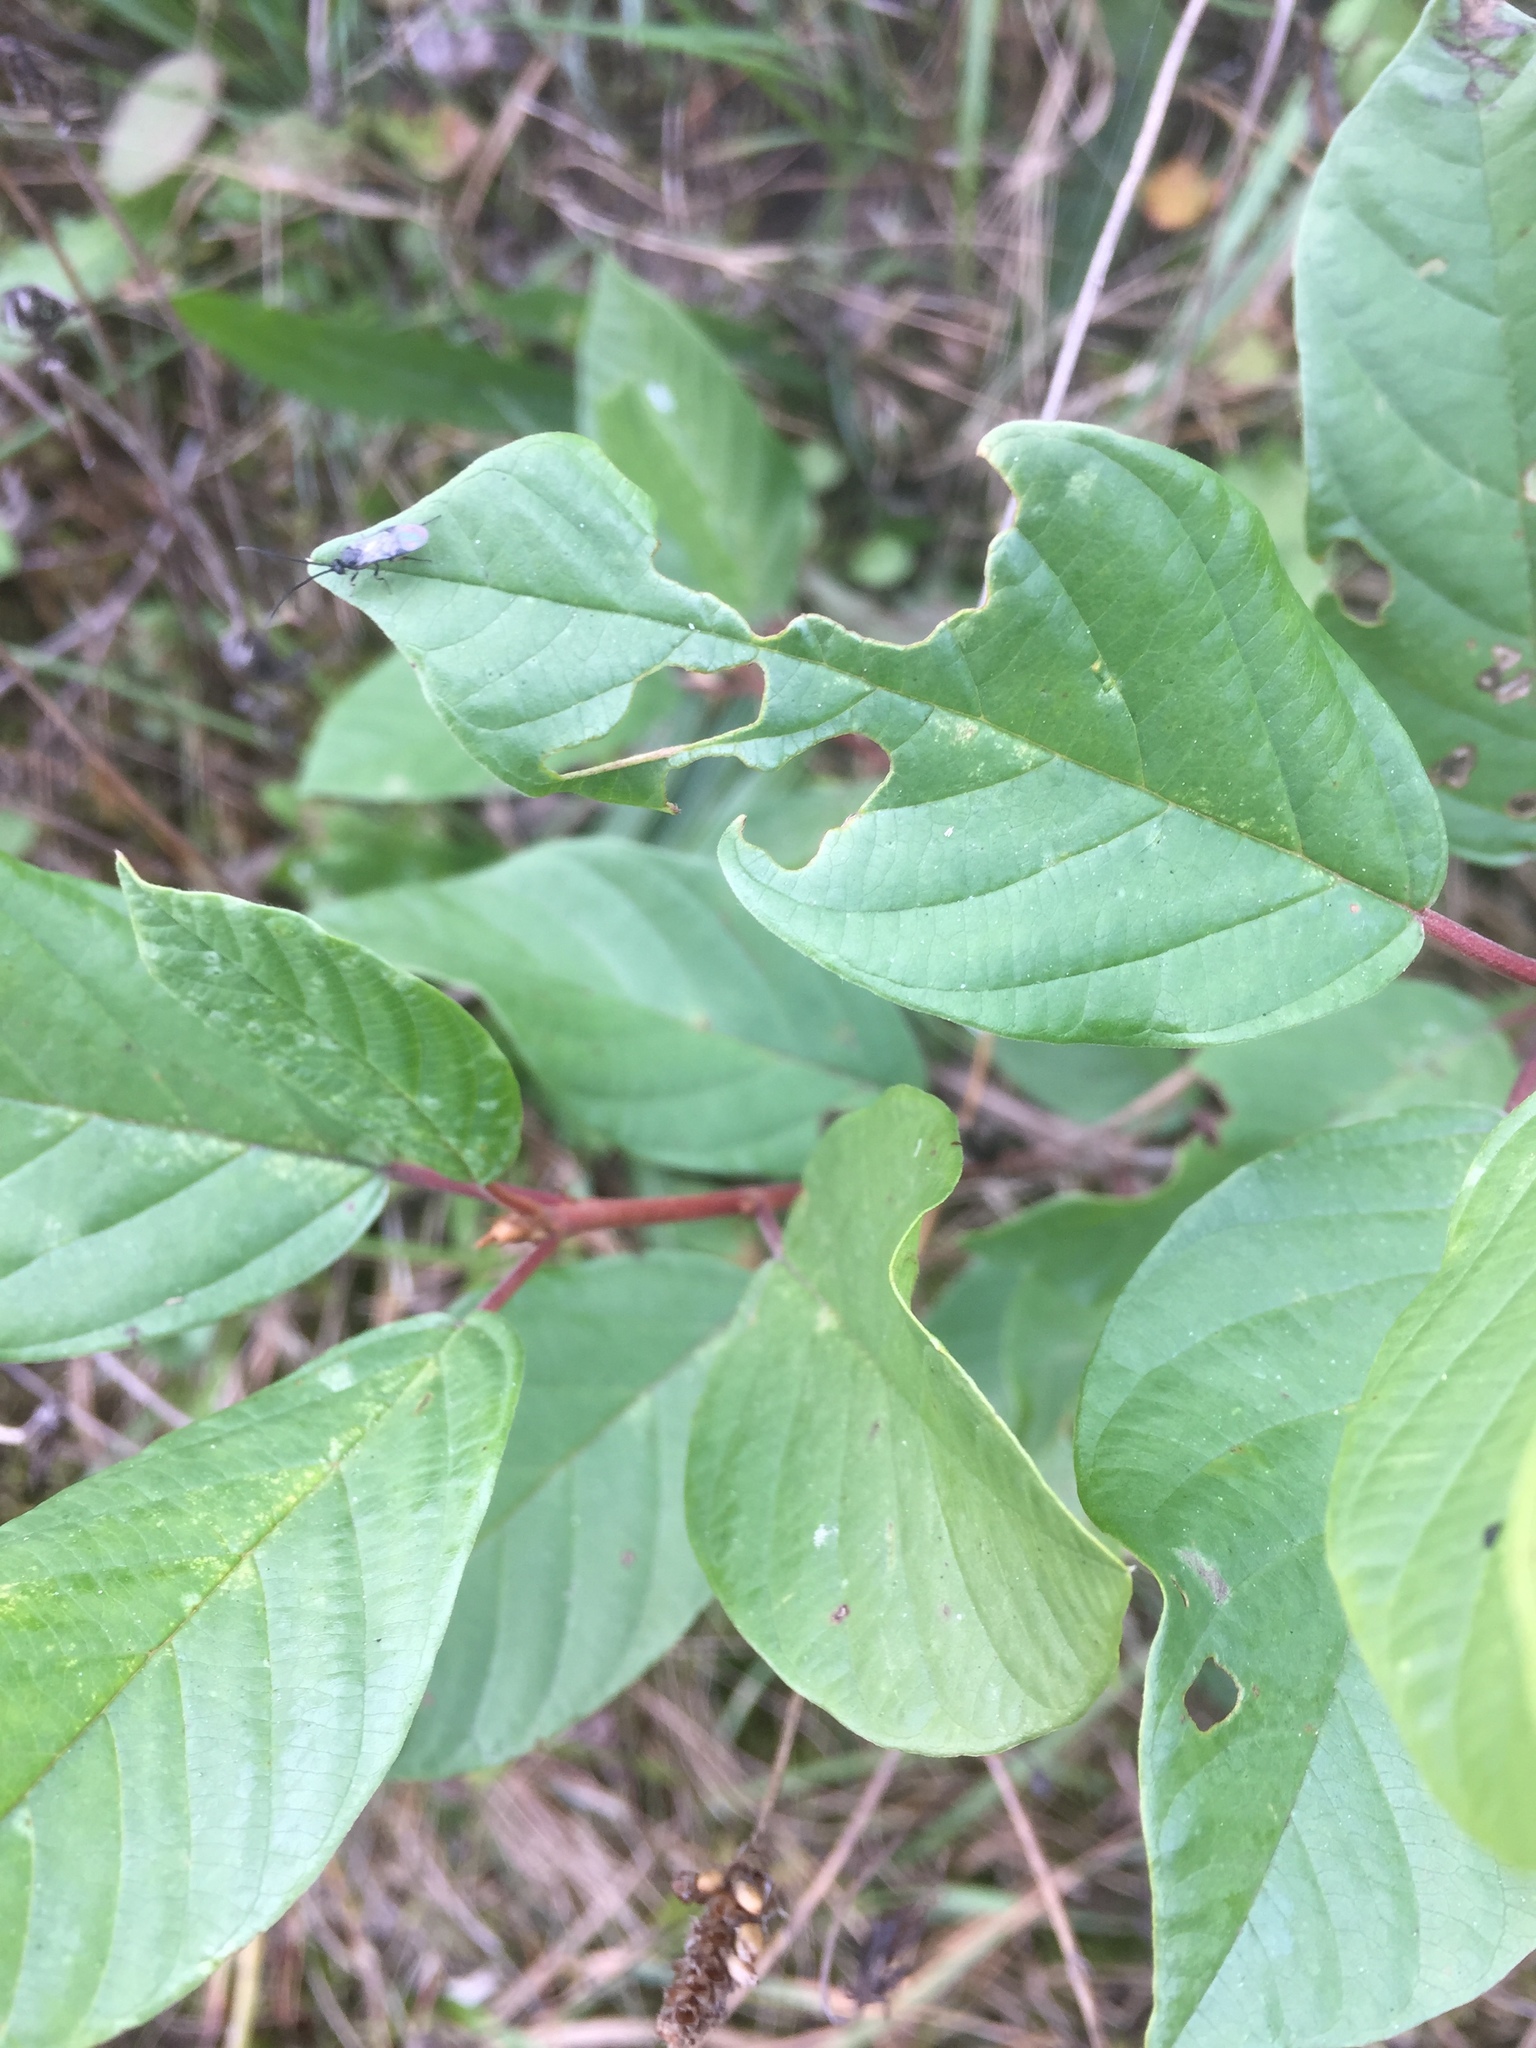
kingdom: Plantae
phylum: Tracheophyta
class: Magnoliopsida
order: Rosales
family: Rhamnaceae
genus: Frangula
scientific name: Frangula alnus
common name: Alder buckthorn
